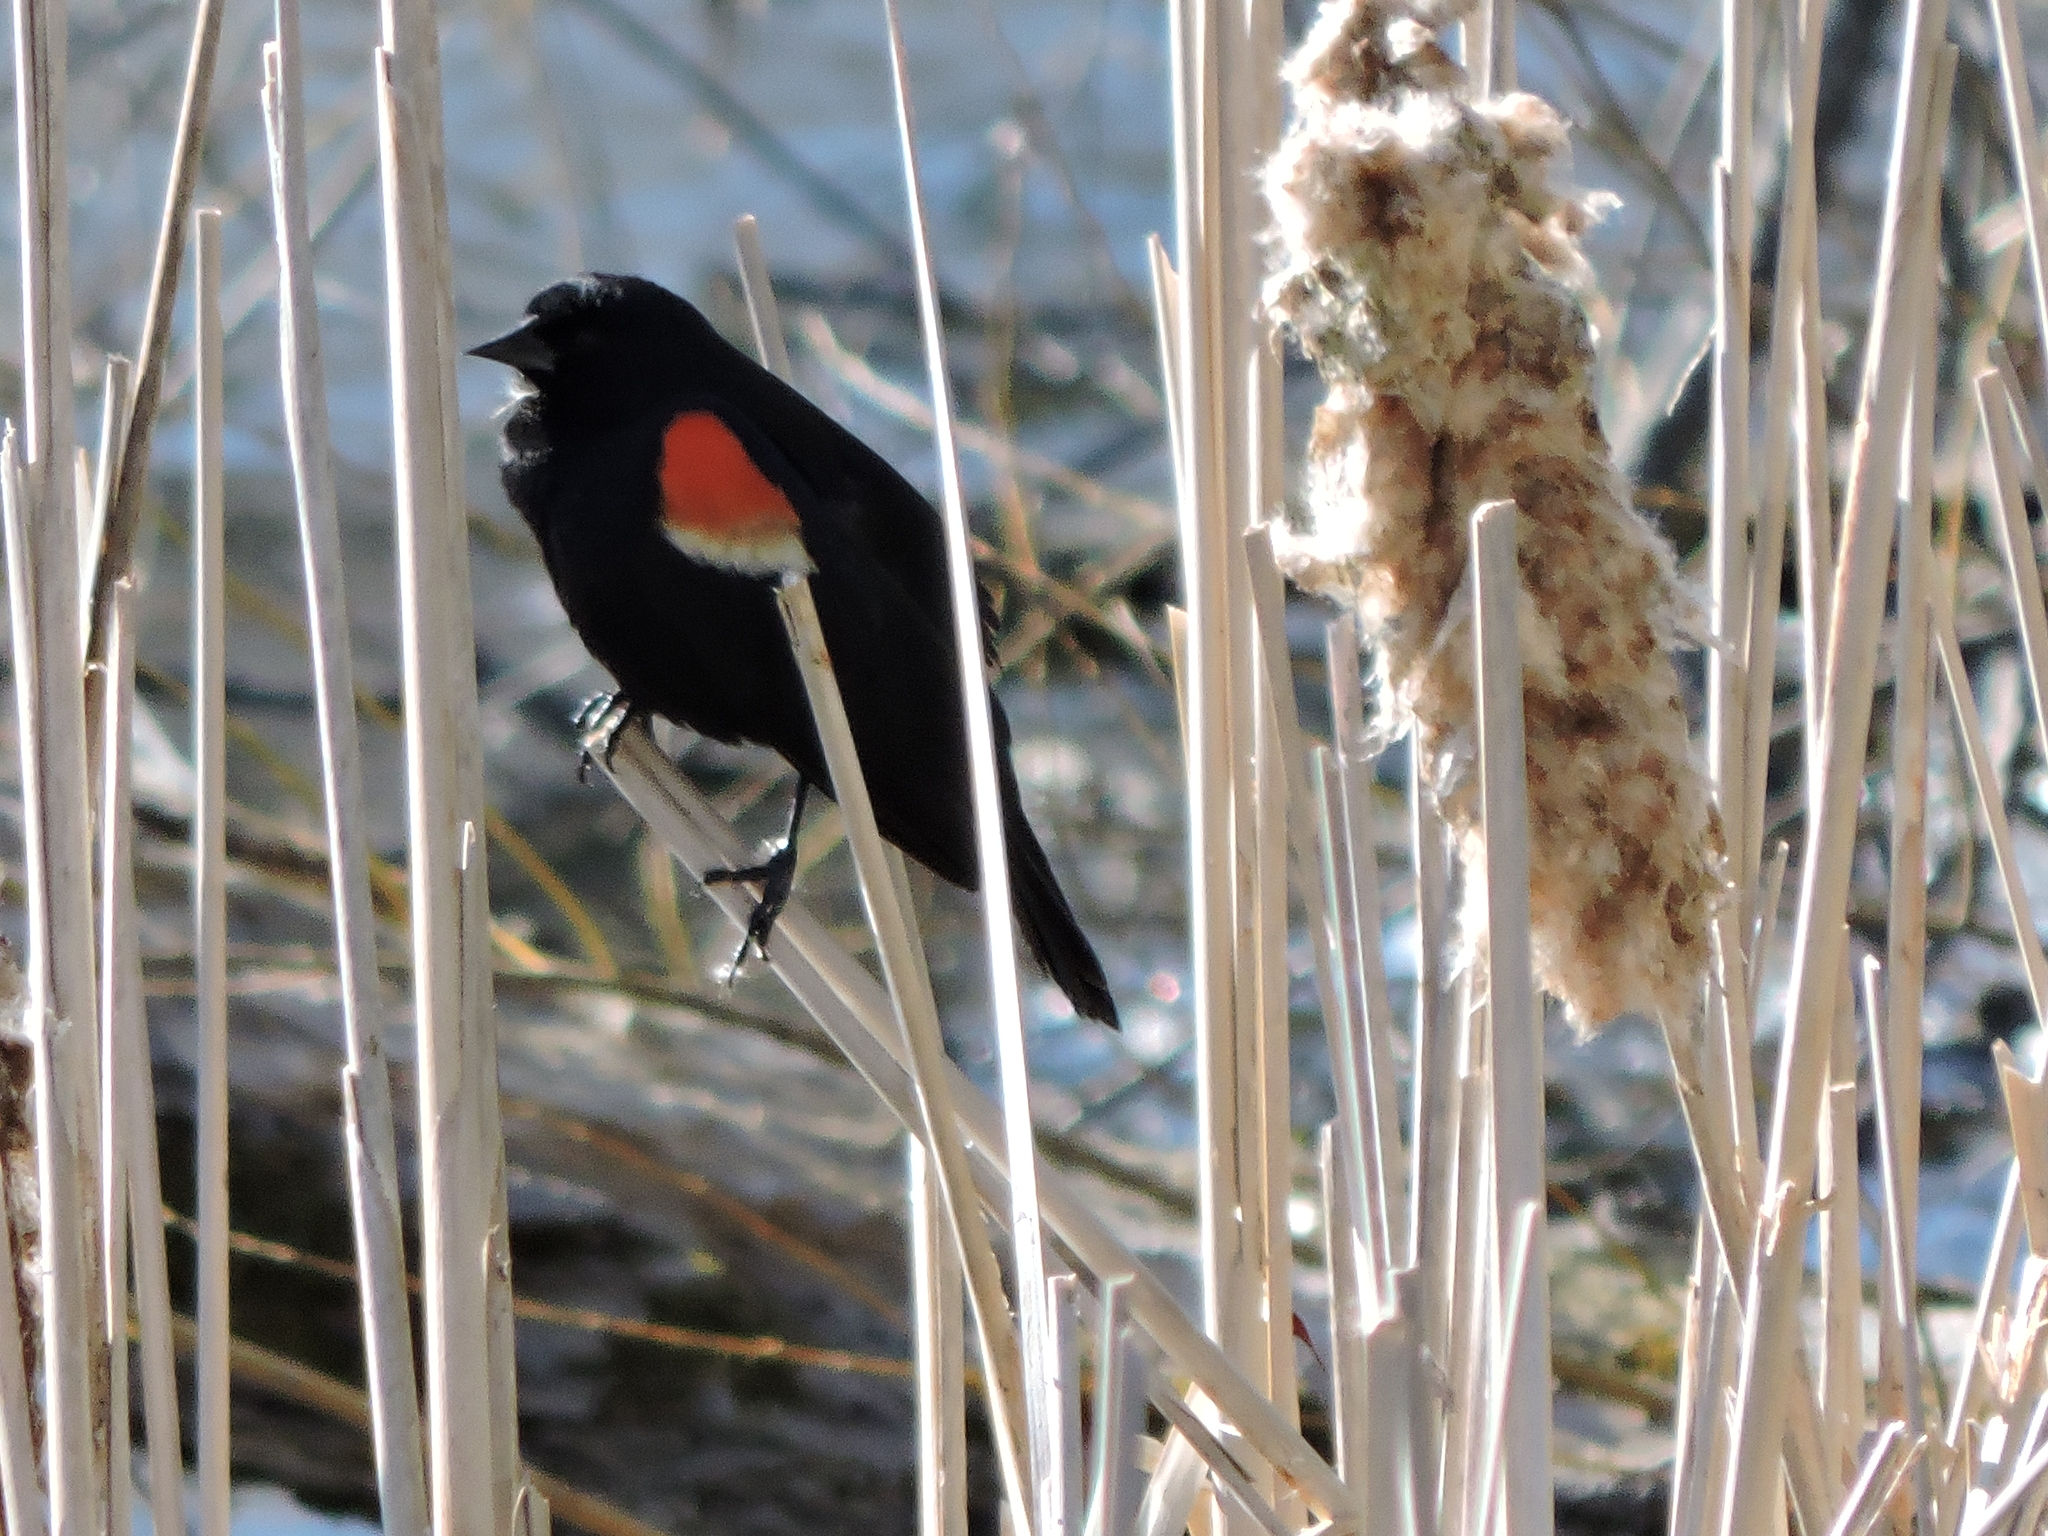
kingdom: Animalia
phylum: Chordata
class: Aves
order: Passeriformes
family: Icteridae
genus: Agelaius
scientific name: Agelaius phoeniceus
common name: Red-winged blackbird
